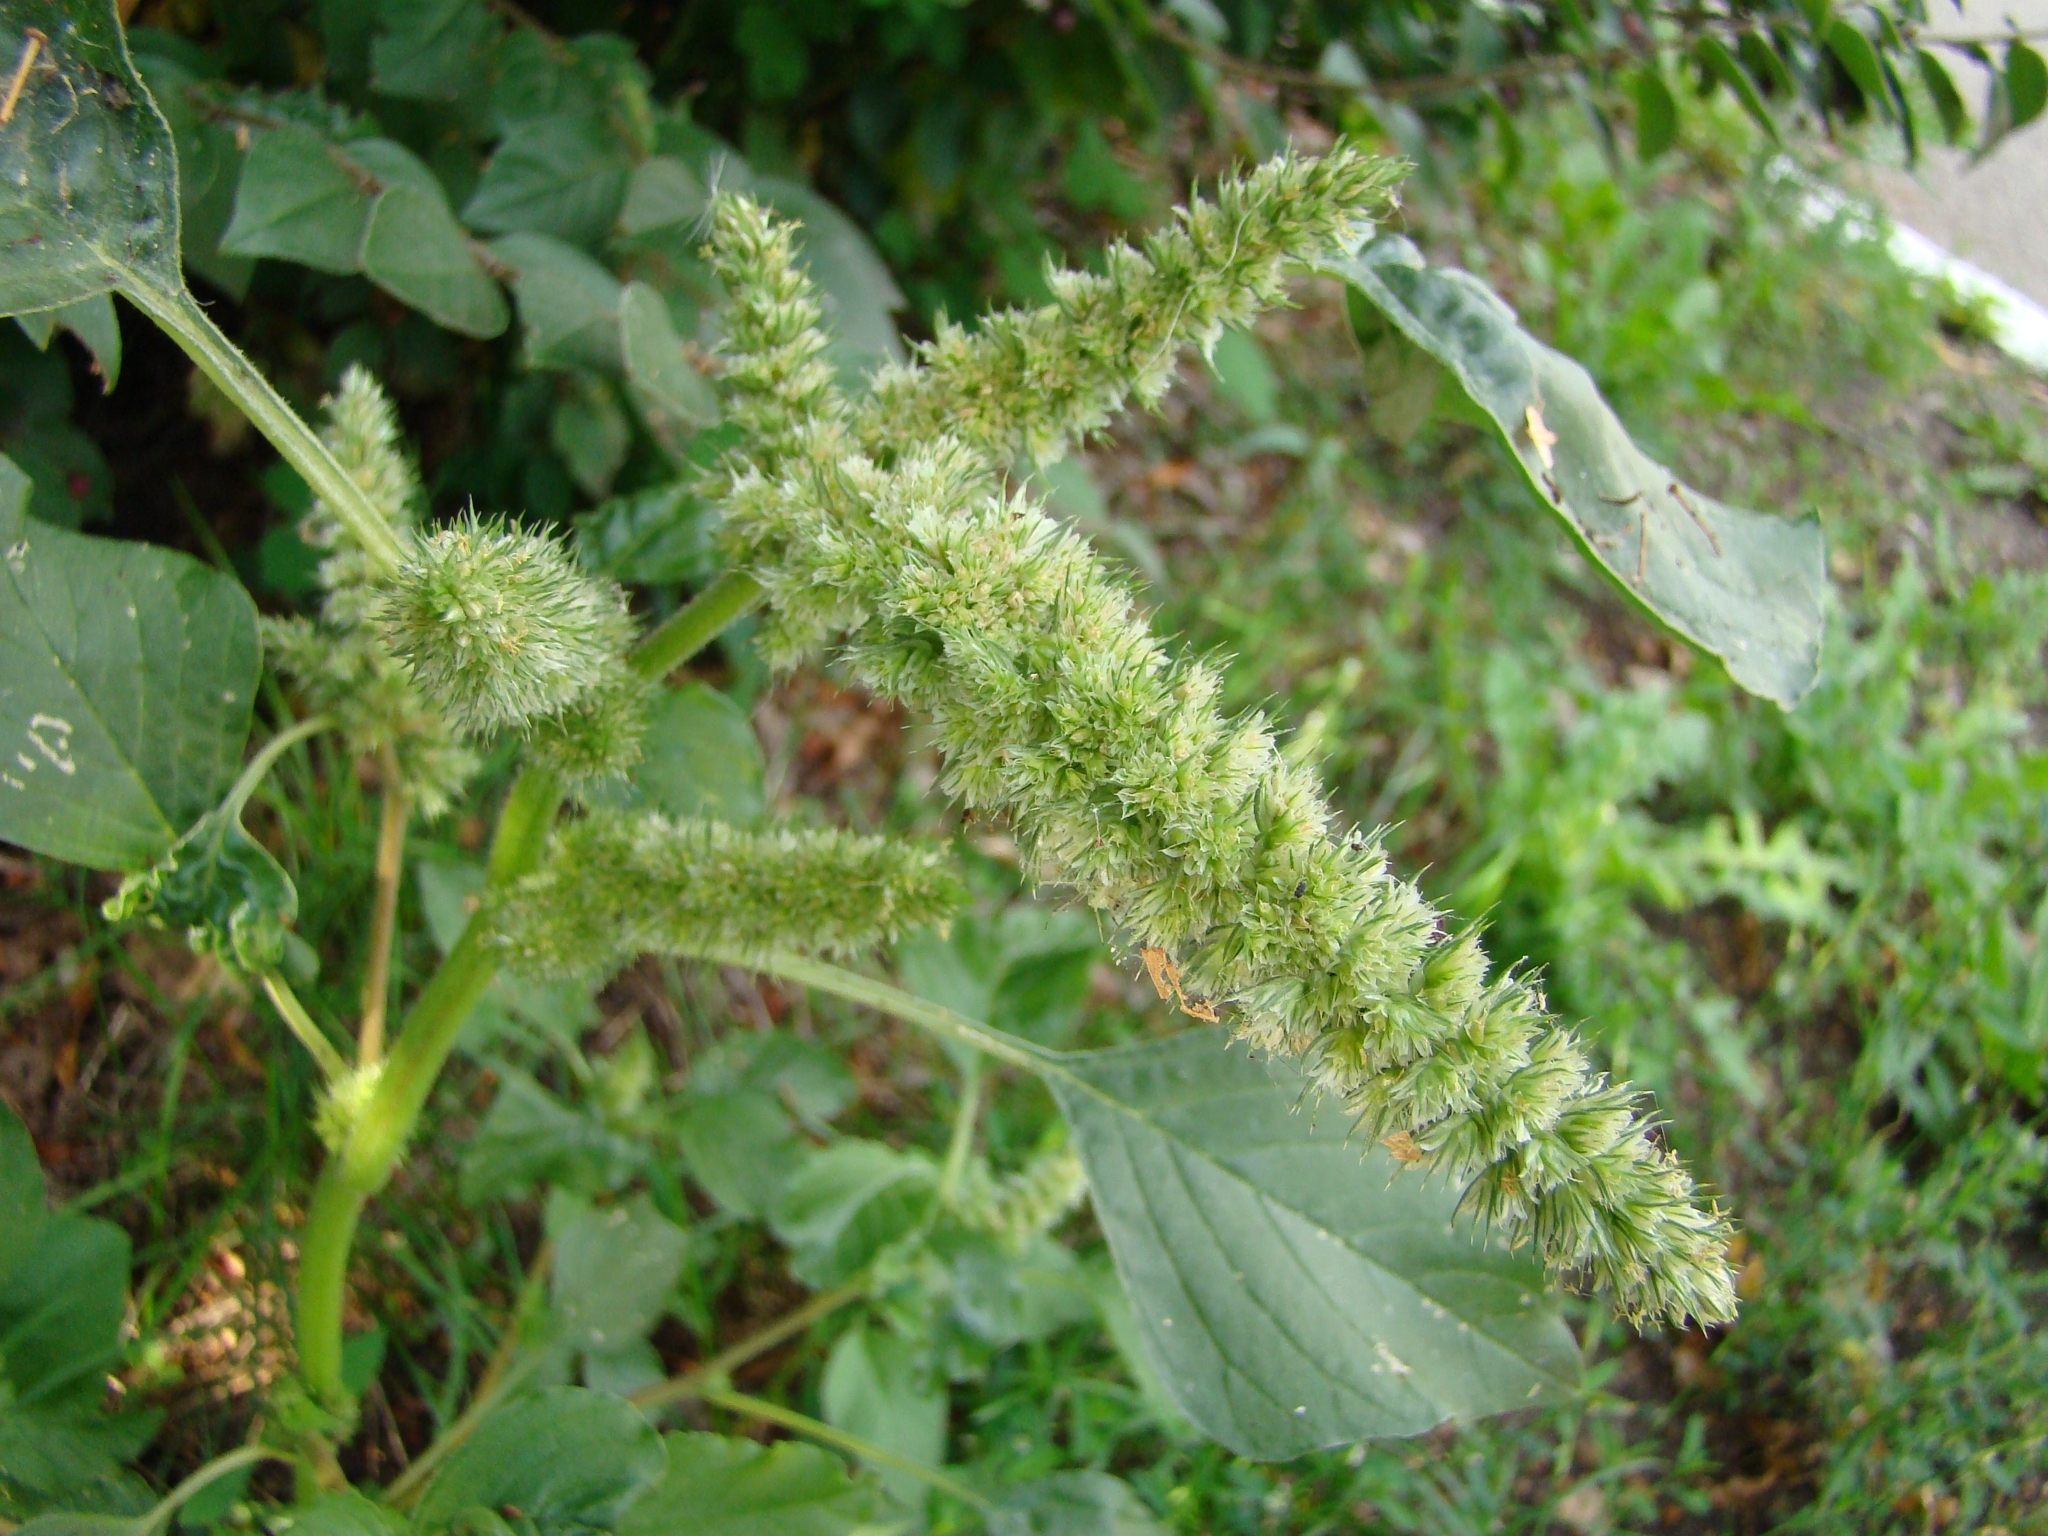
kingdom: Plantae
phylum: Tracheophyta
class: Magnoliopsida
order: Caryophyllales
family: Amaranthaceae
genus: Amaranthus
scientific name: Amaranthus retroflexus
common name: Redroot amaranth
